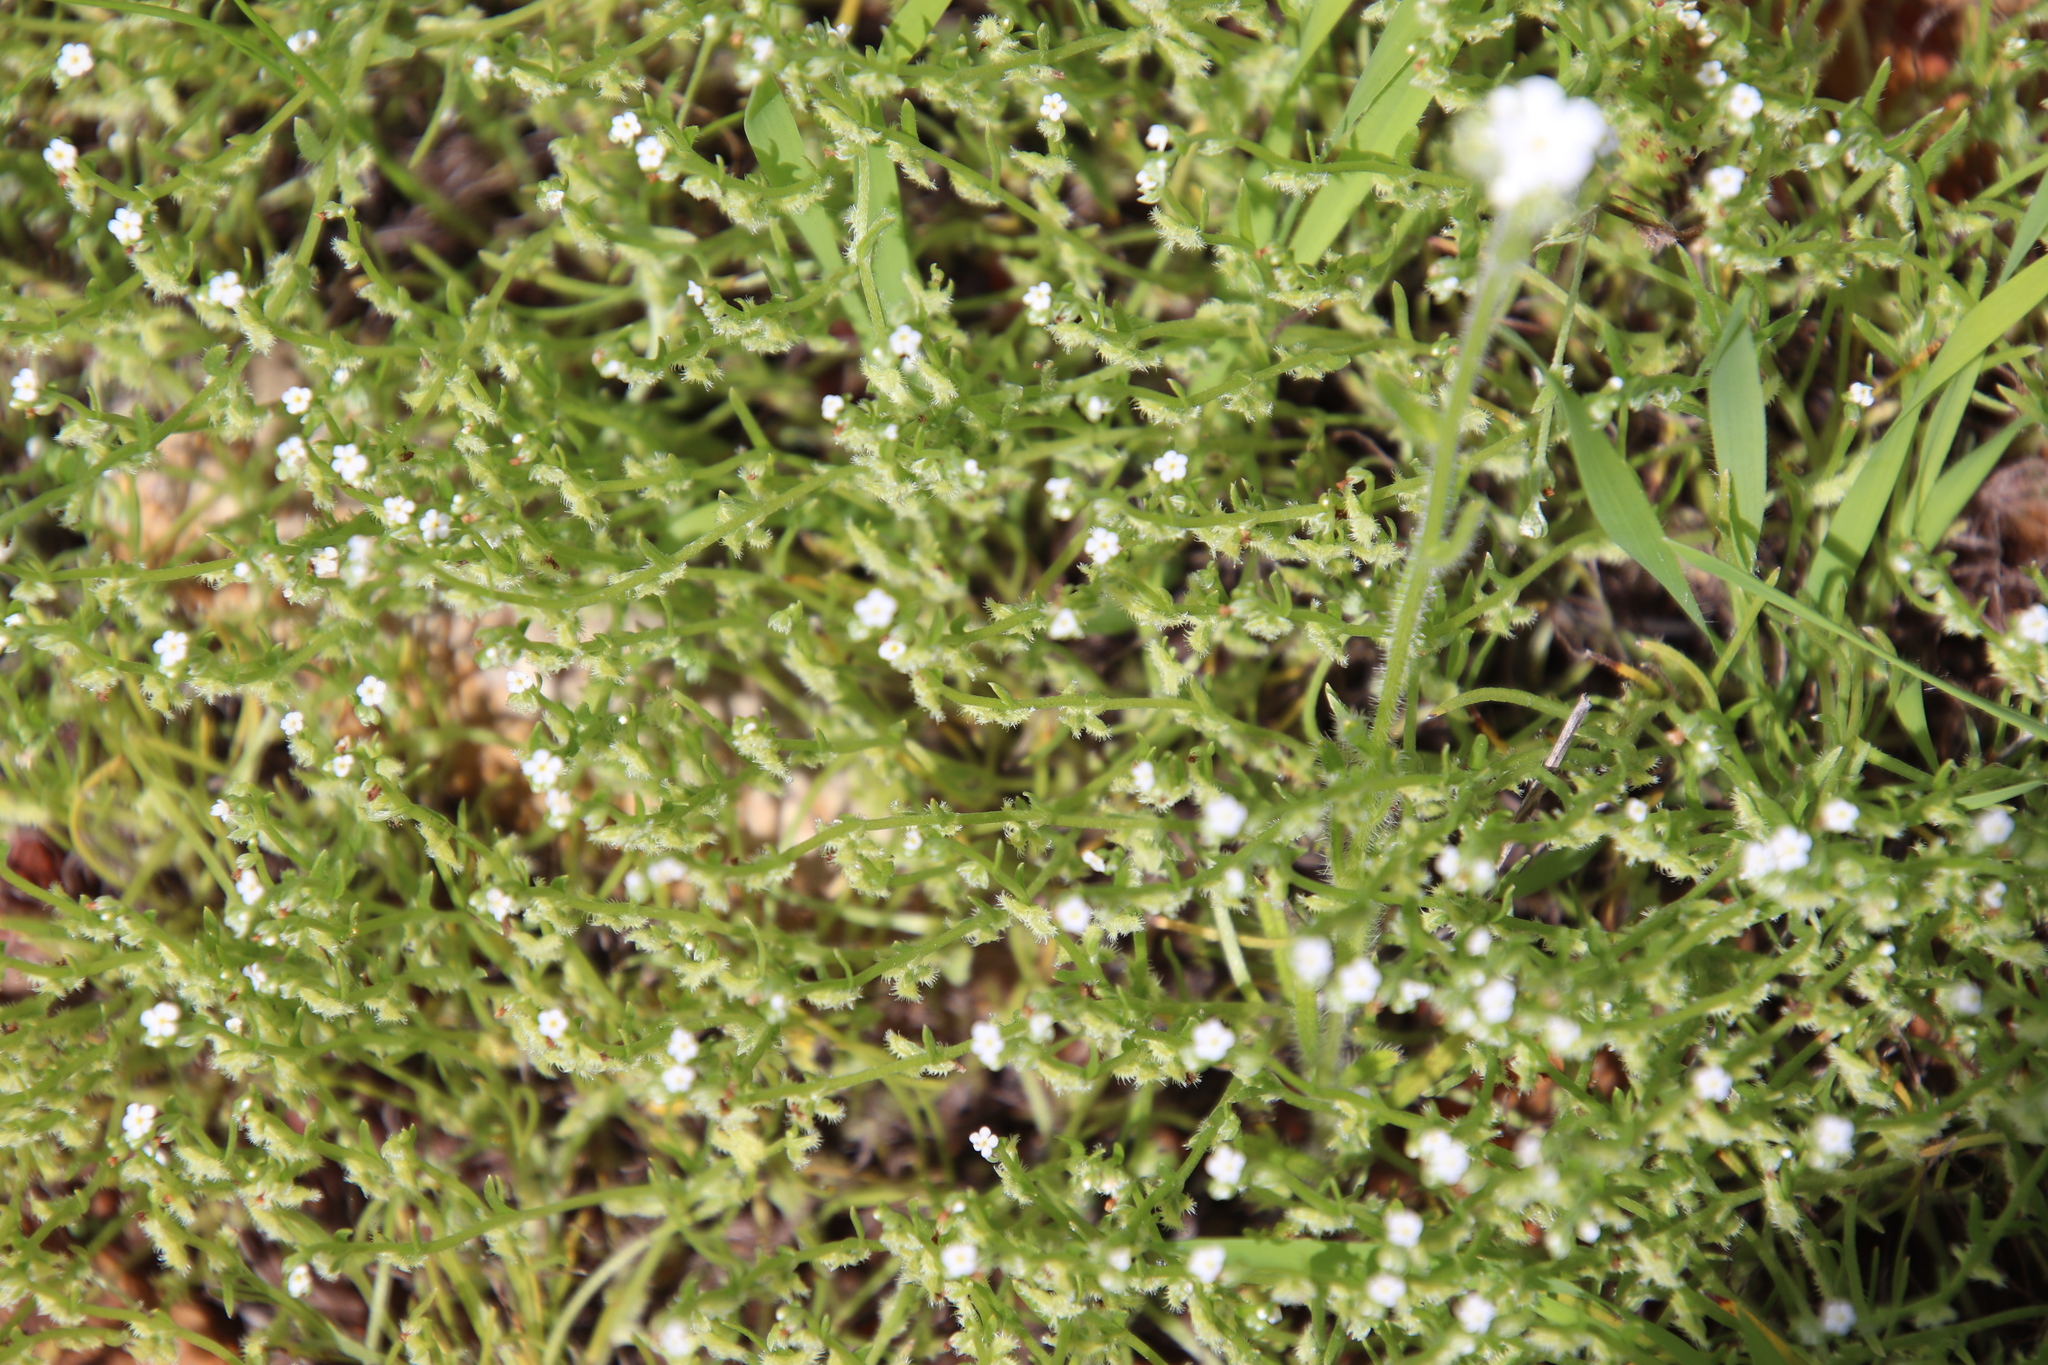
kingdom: Plantae
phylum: Tracheophyta
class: Magnoliopsida
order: Boraginales
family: Boraginaceae
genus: Pectocarya
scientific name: Pectocarya linearis
